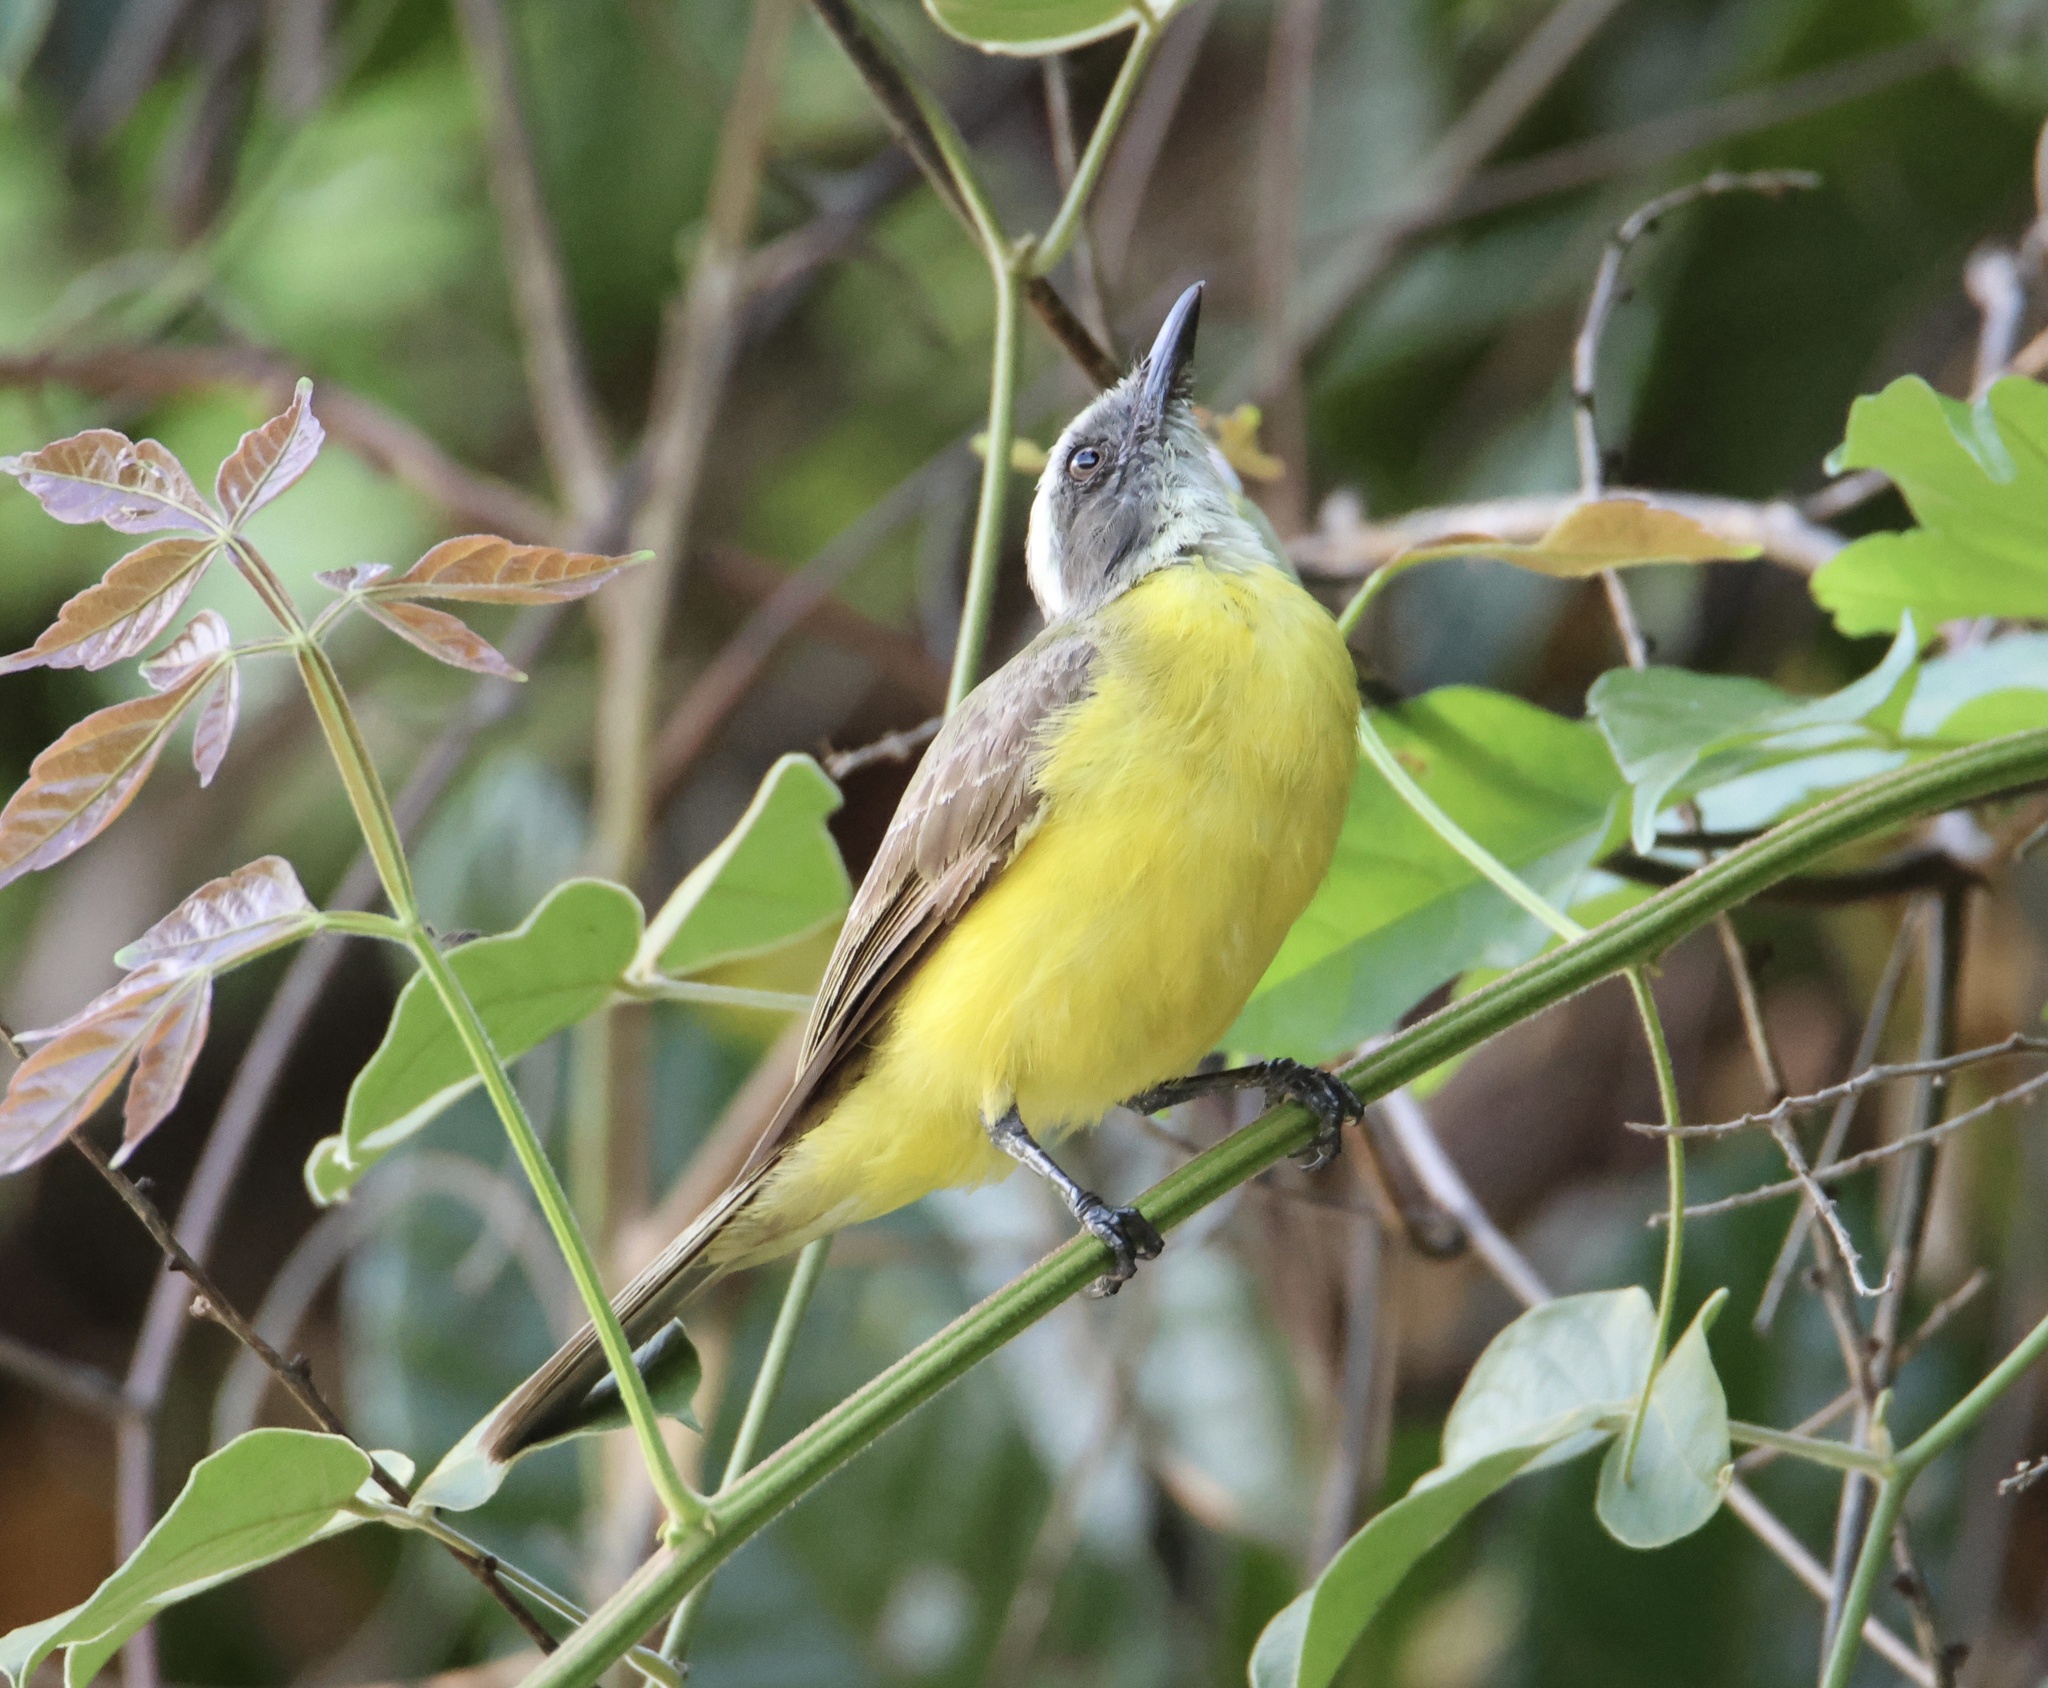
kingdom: Animalia
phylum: Chordata
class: Aves
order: Passeriformes
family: Tyrannidae
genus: Myiozetetes
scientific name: Myiozetetes similis
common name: Social flycatcher
